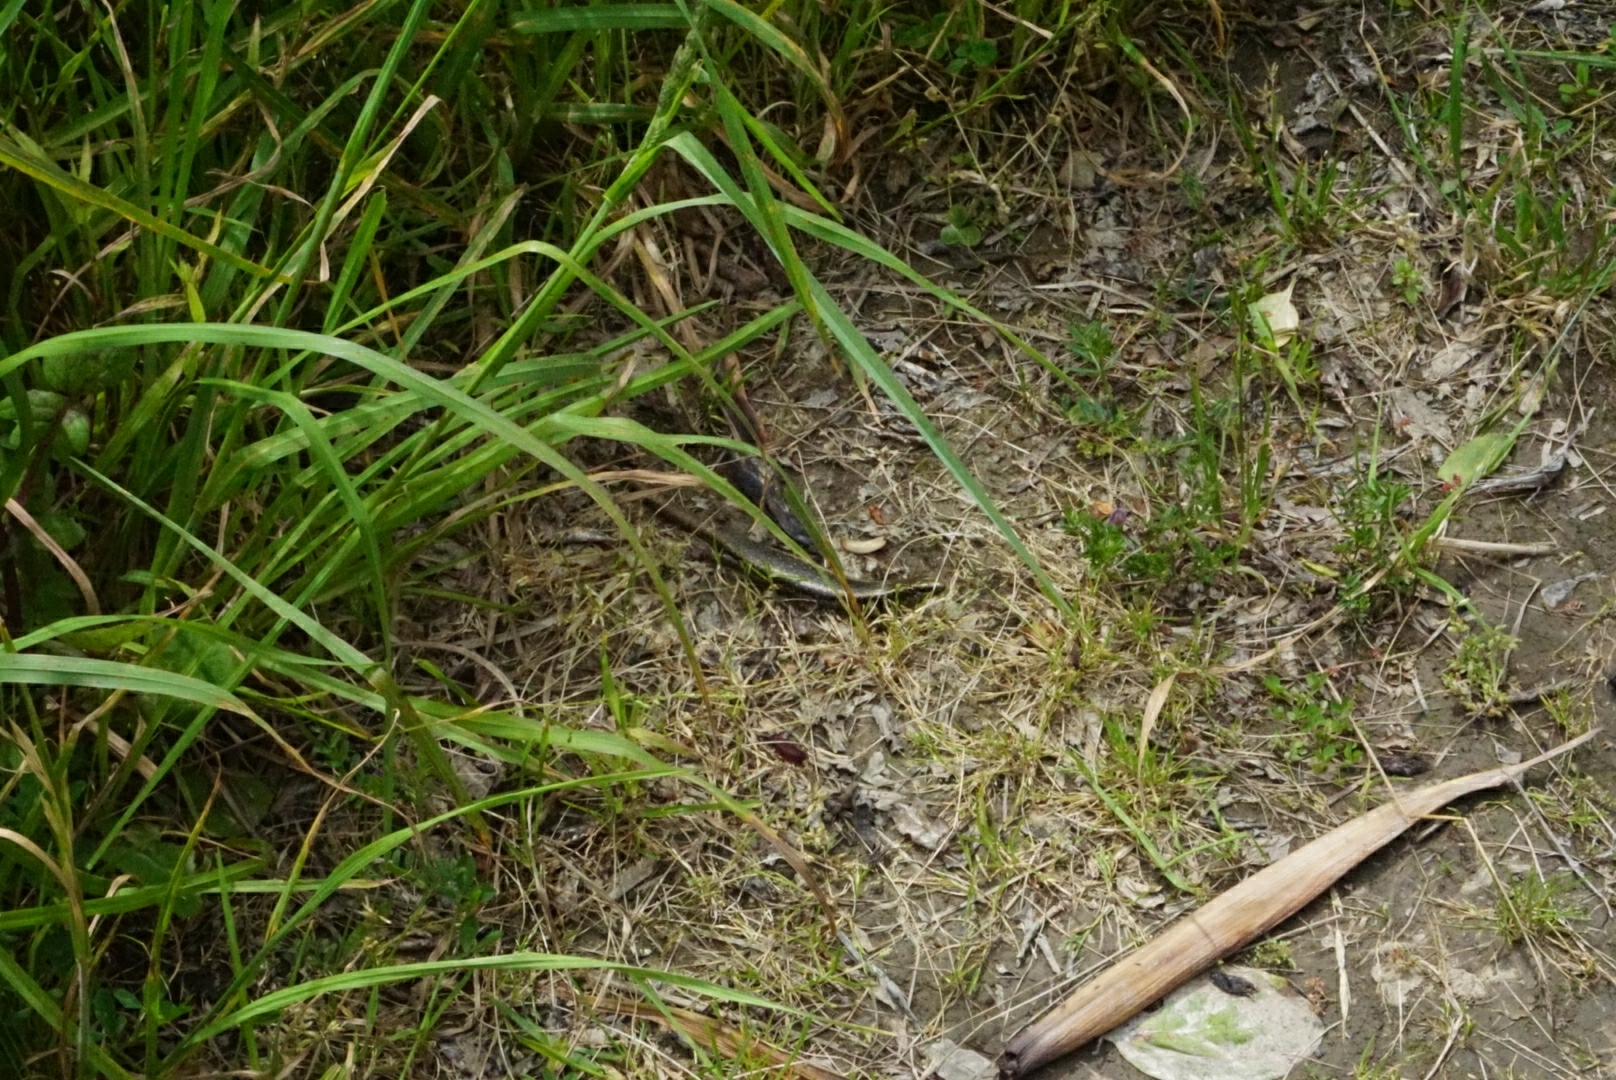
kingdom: Animalia
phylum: Chordata
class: Squamata
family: Scincidae
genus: Oligosoma
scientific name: Oligosoma kokowai
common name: Northern spotted skink
